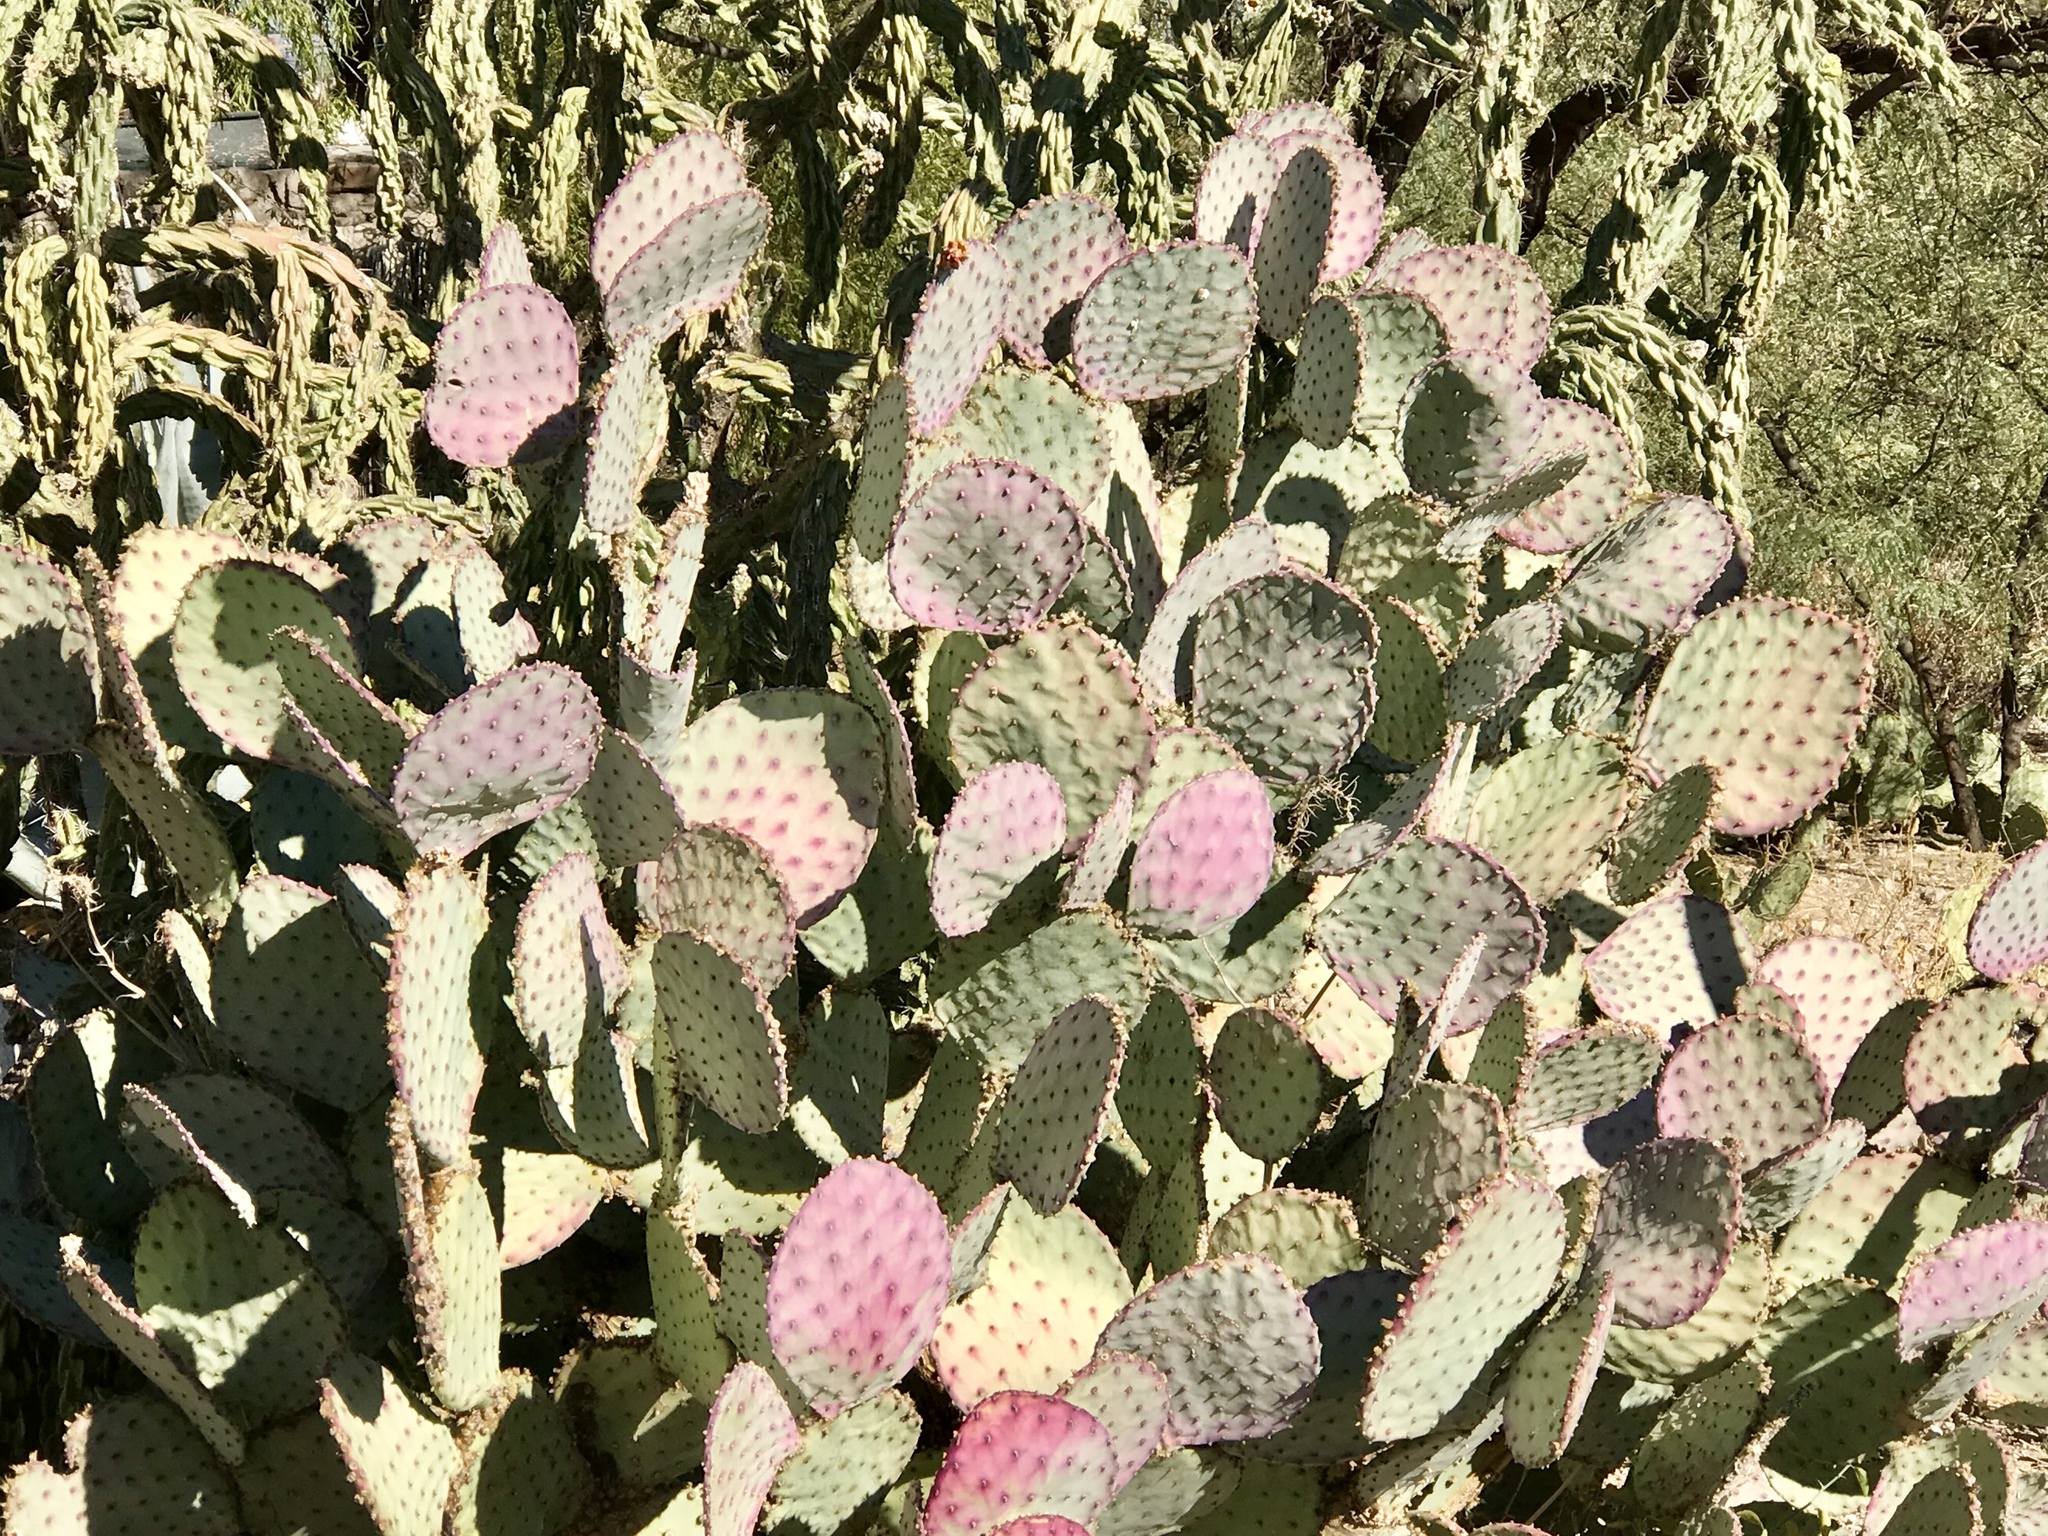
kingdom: Plantae
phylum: Tracheophyta
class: Magnoliopsida
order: Caryophyllales
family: Cactaceae
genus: Opuntia
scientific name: Opuntia gosseliniana
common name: Violet prickly-pear
